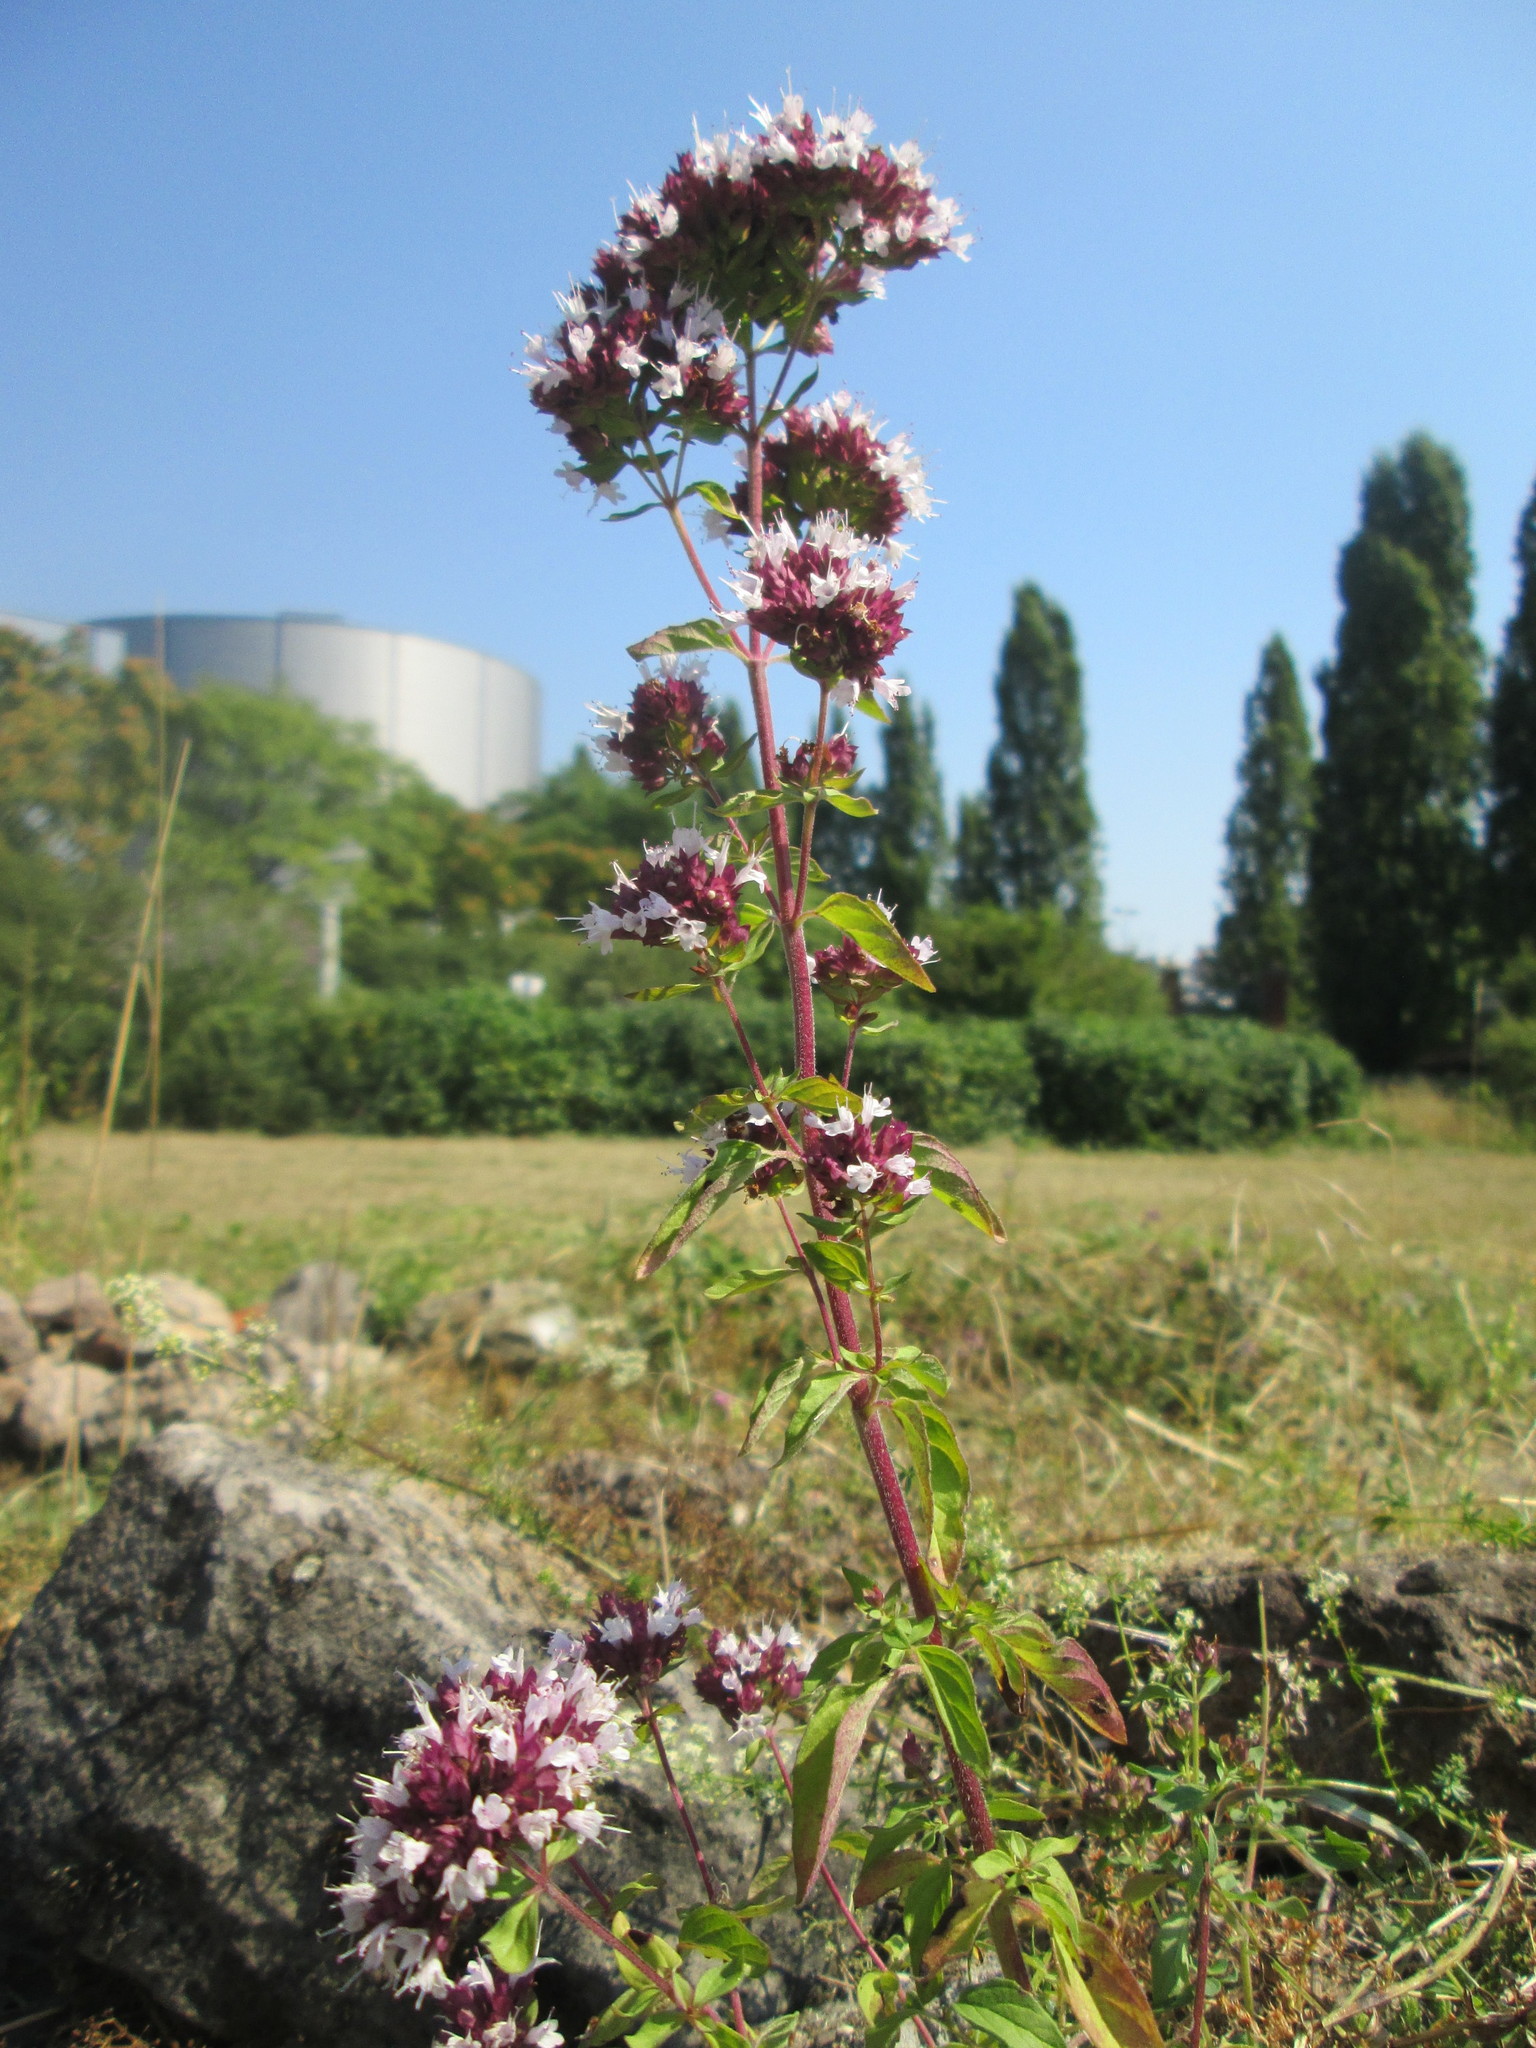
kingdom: Plantae
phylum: Tracheophyta
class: Magnoliopsida
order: Lamiales
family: Lamiaceae
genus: Origanum
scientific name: Origanum vulgare
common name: Wild marjoram
